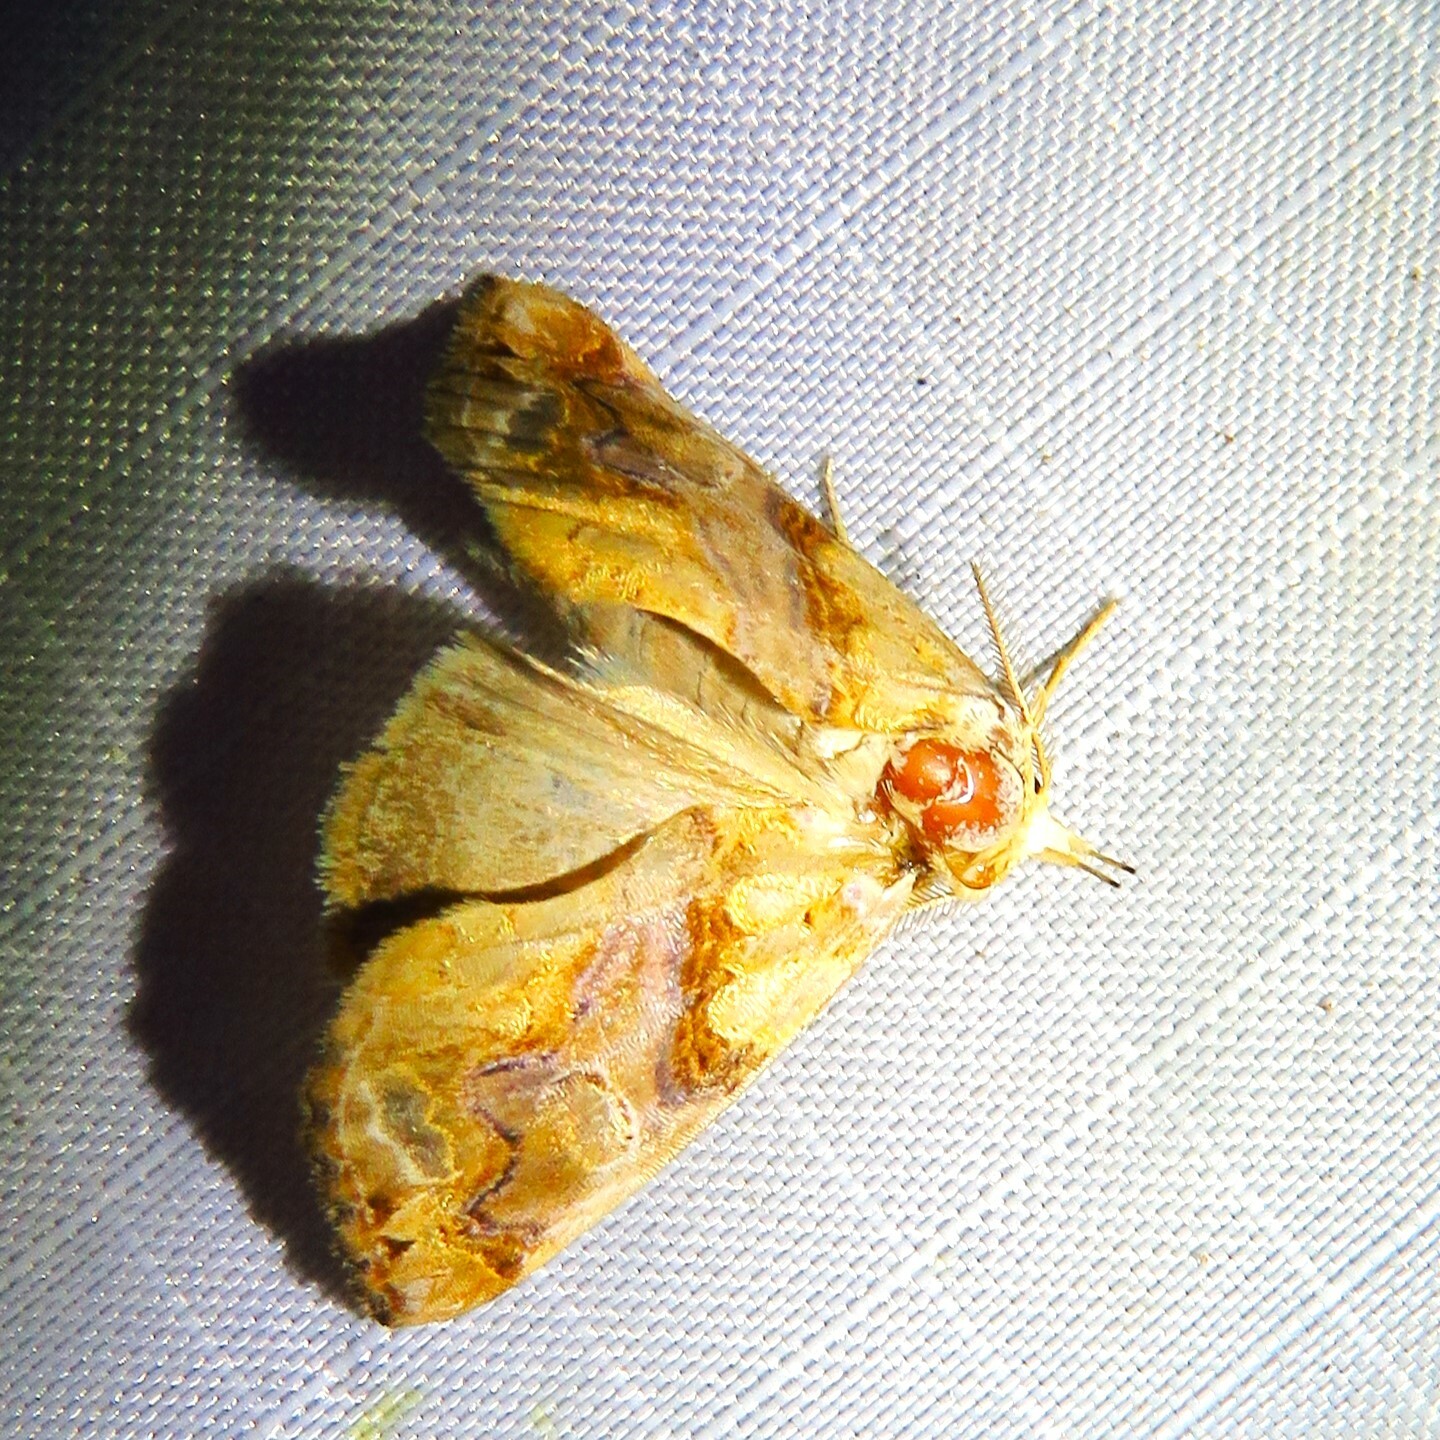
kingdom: Animalia
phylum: Arthropoda
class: Insecta
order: Lepidoptera
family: Erebidae
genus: Plusiodonta
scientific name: Plusiodonta compressipalpis
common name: Moonseed moth
